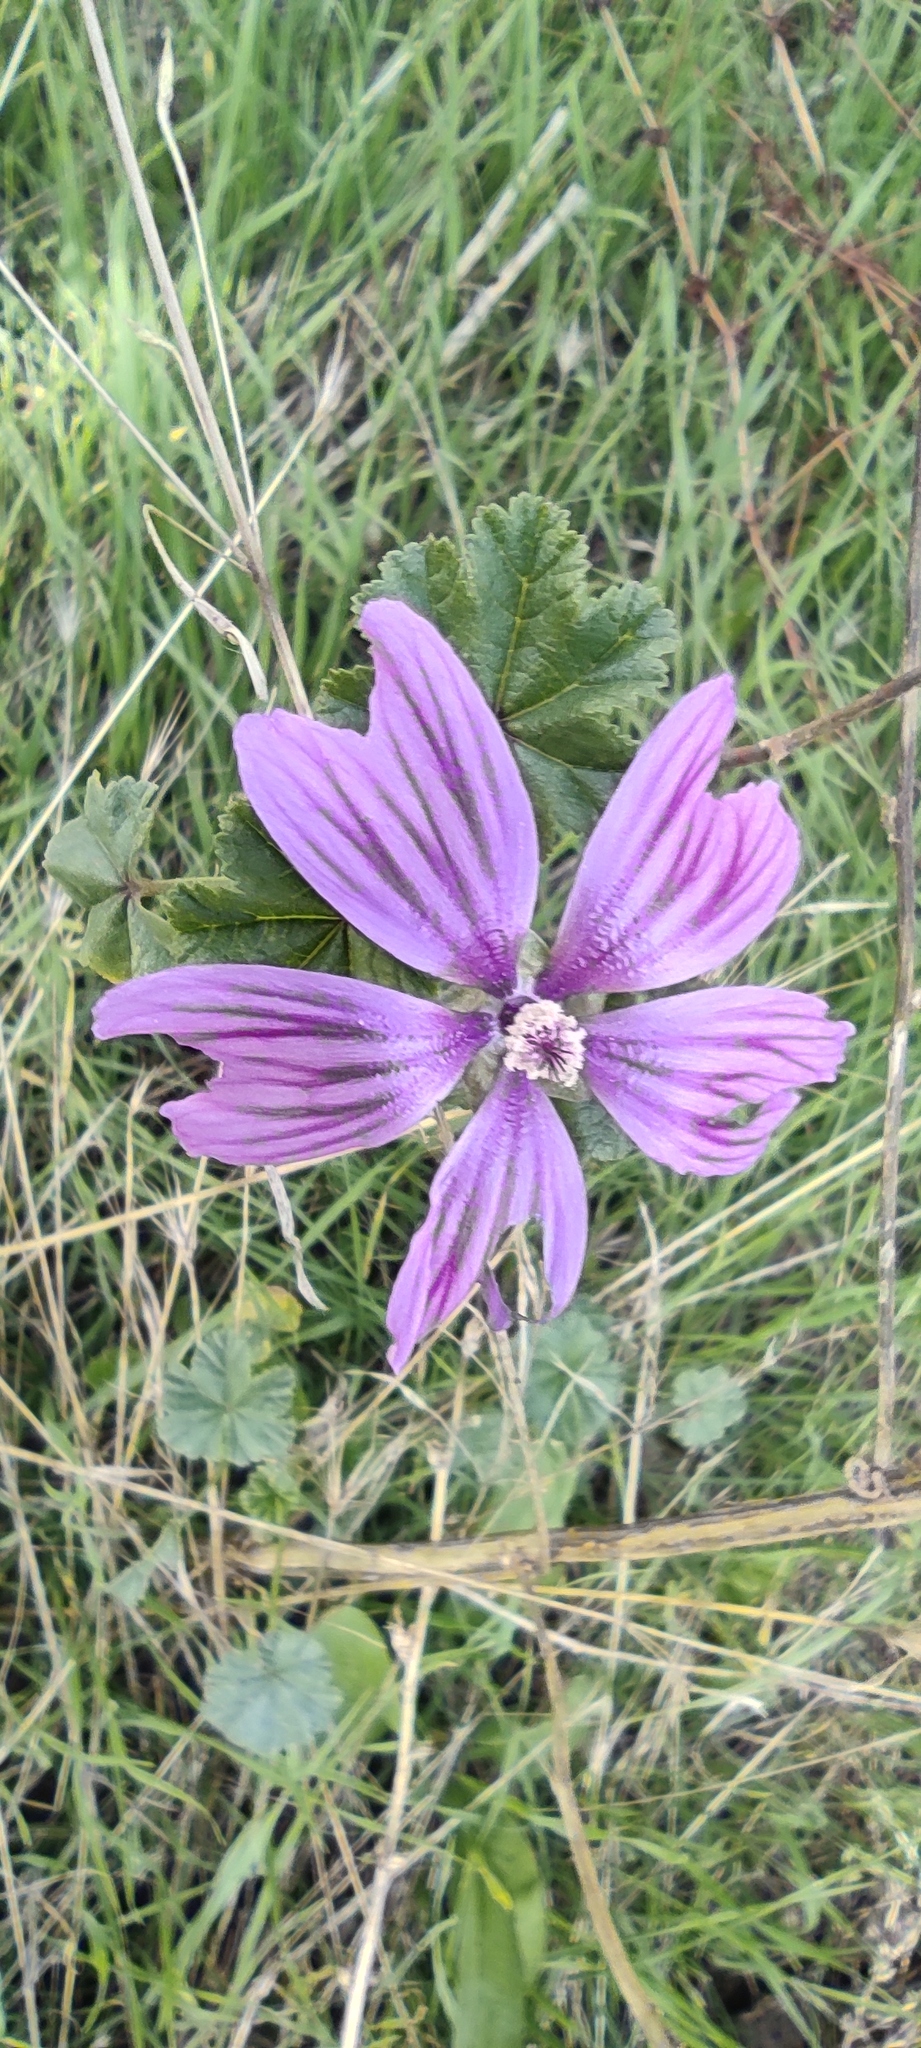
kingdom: Plantae
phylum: Tracheophyta
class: Magnoliopsida
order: Malvales
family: Malvaceae
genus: Malva
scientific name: Malva sylvestris
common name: Common mallow
